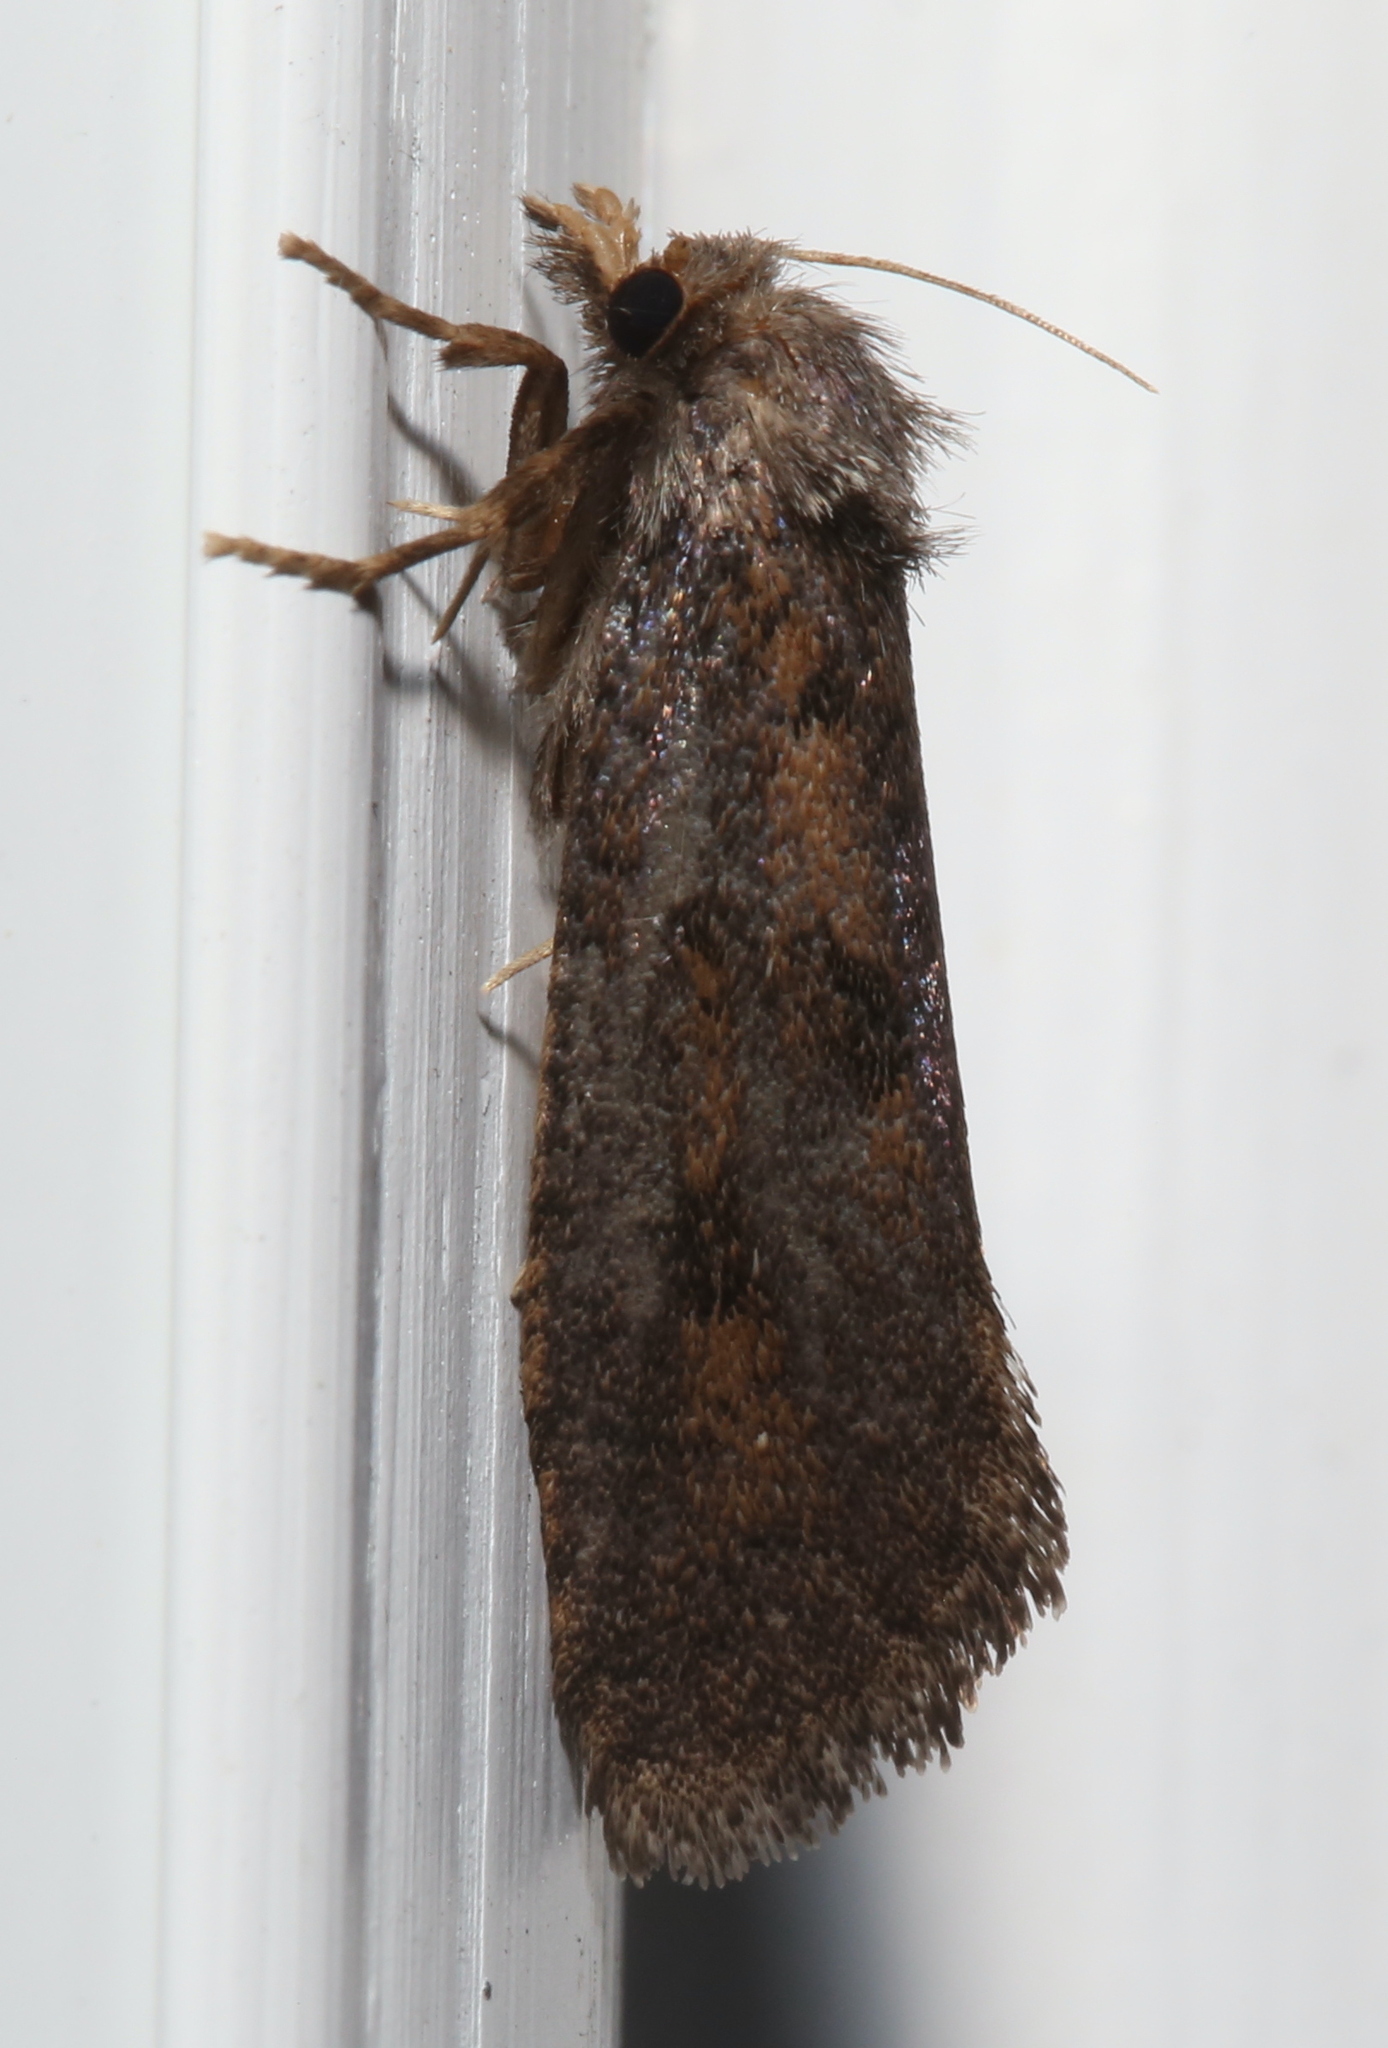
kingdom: Animalia
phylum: Arthropoda
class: Insecta
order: Lepidoptera
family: Tineidae
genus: Acrolophus
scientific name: Acrolophus popeanella
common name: Clemens' grass tubeworm moth
